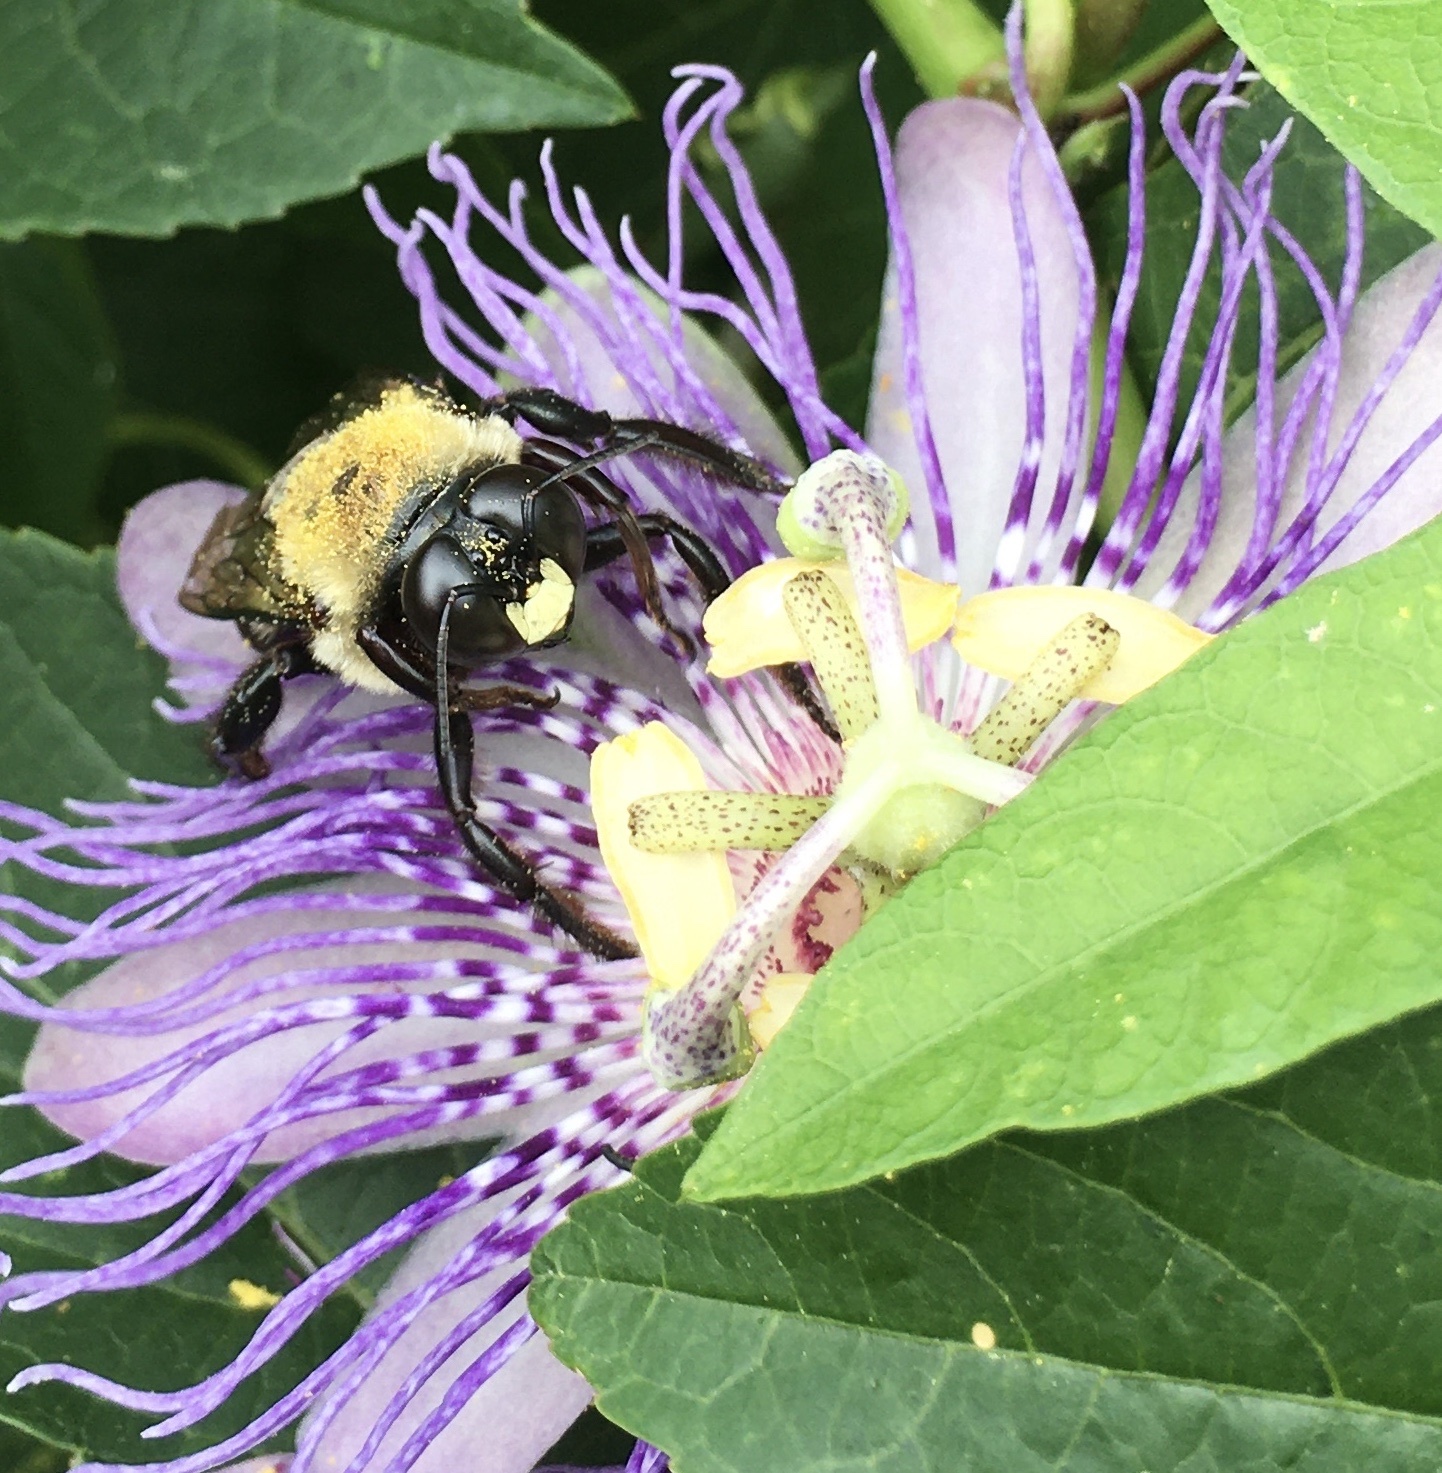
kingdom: Animalia
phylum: Arthropoda
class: Insecta
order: Hymenoptera
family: Apidae
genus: Xylocopa
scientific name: Xylocopa virginica
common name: Carpenter bee
